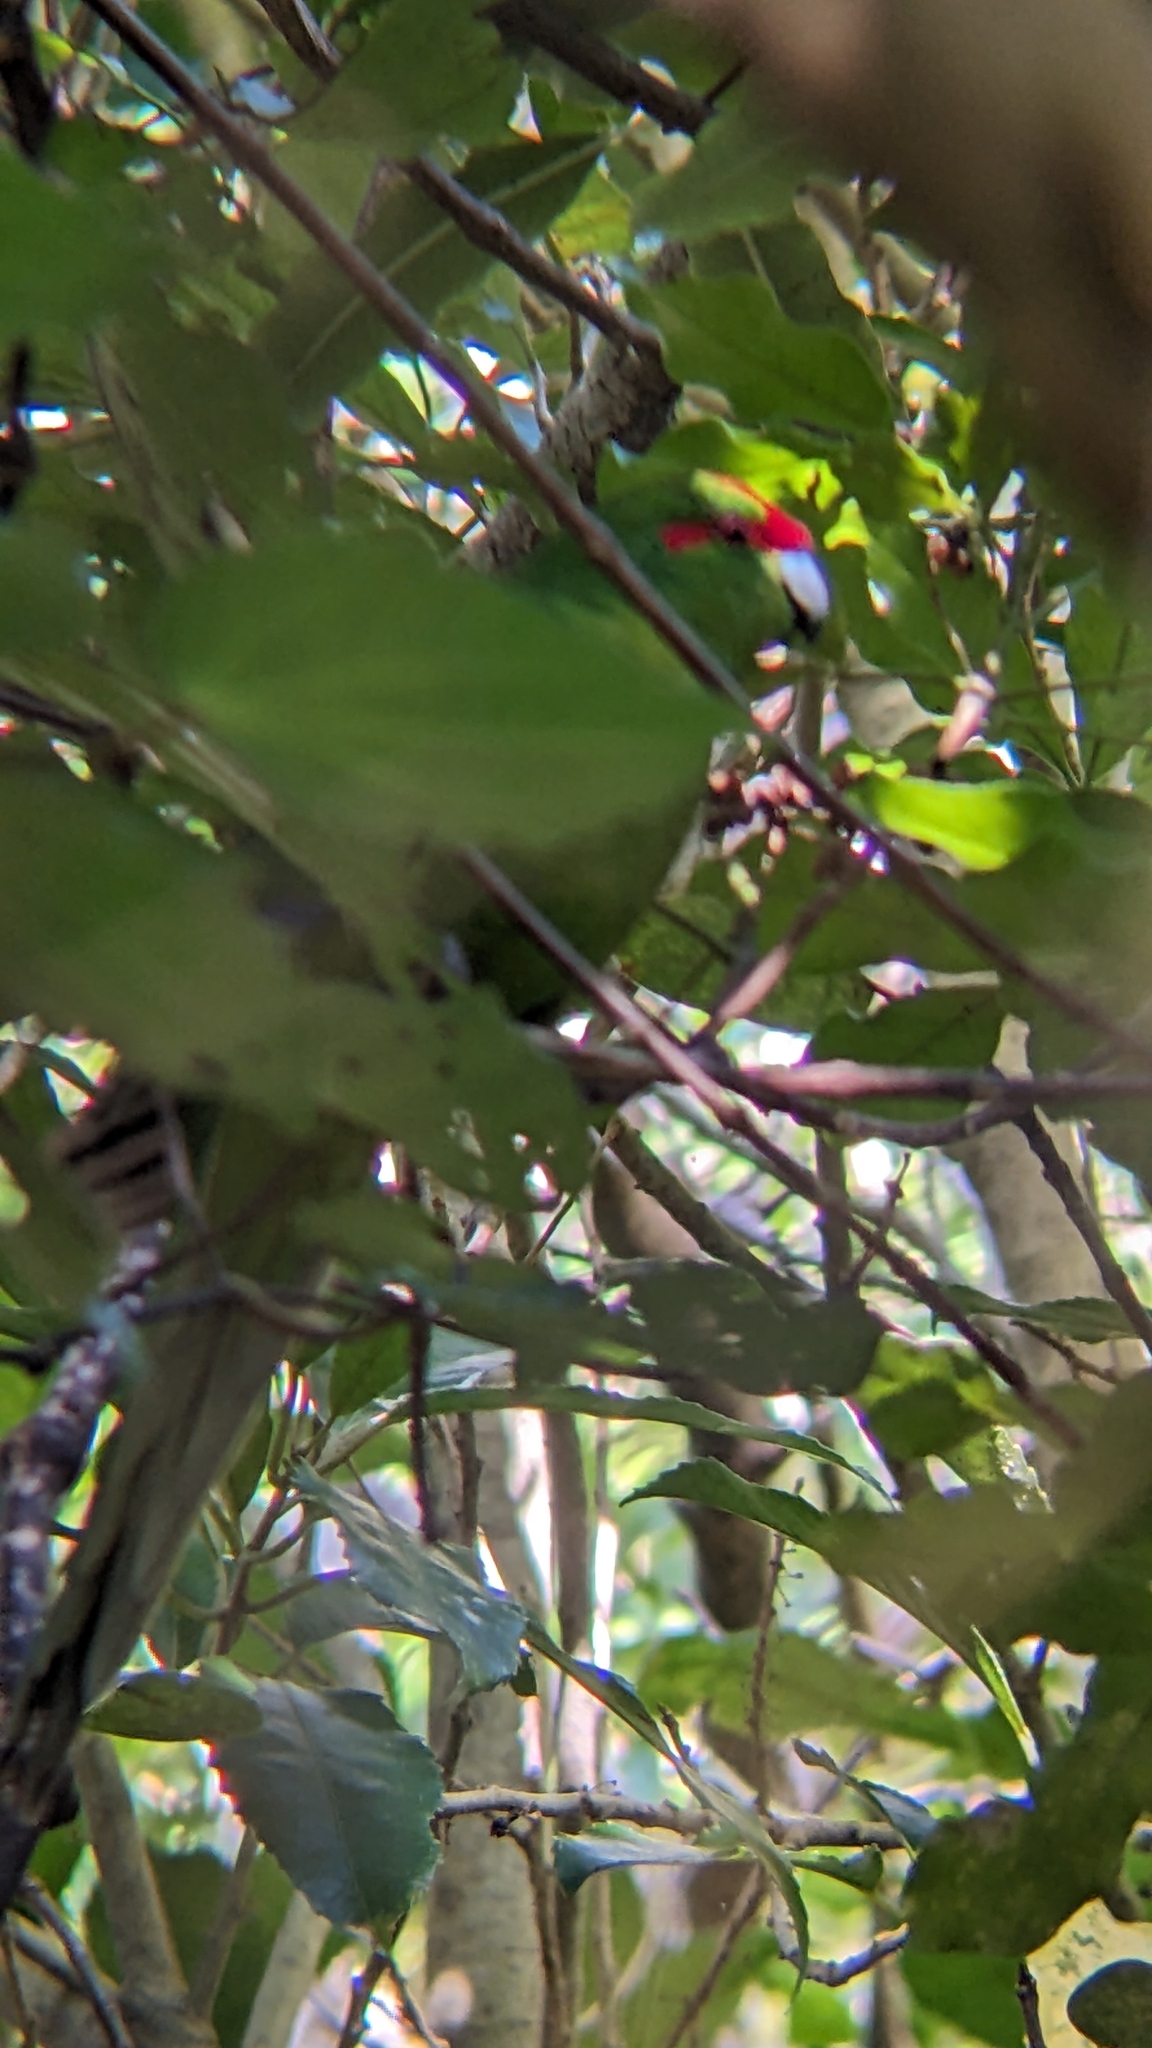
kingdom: Animalia
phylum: Chordata
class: Aves
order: Psittaciformes
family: Psittacidae
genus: Cyanoramphus
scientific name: Cyanoramphus novaezelandiae
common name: Red-fronted parakeet
